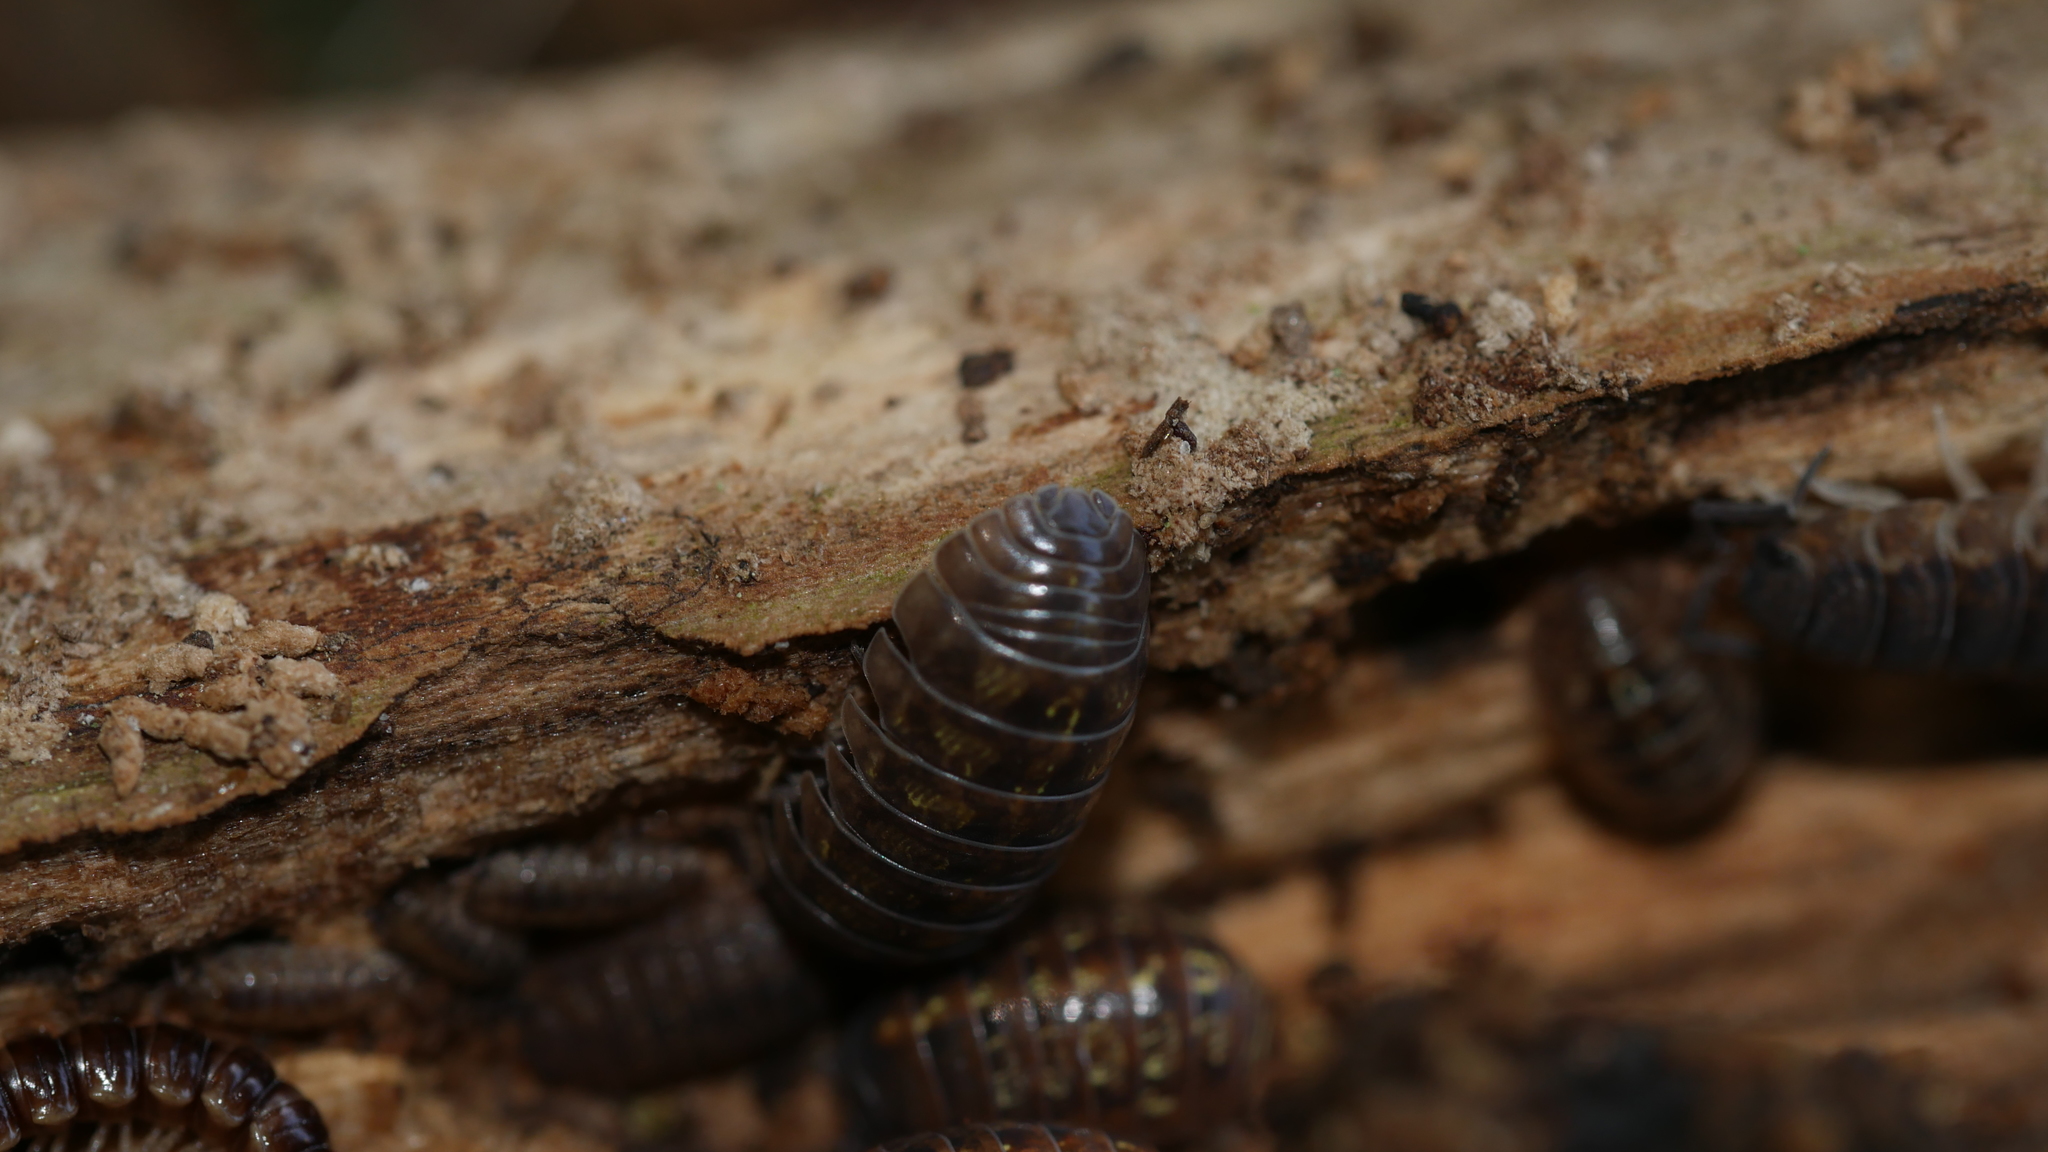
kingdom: Animalia
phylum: Arthropoda
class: Malacostraca
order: Isopoda
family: Armadillidiidae
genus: Armadillidium
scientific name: Armadillidium vulgare
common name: Common pill woodlouse
